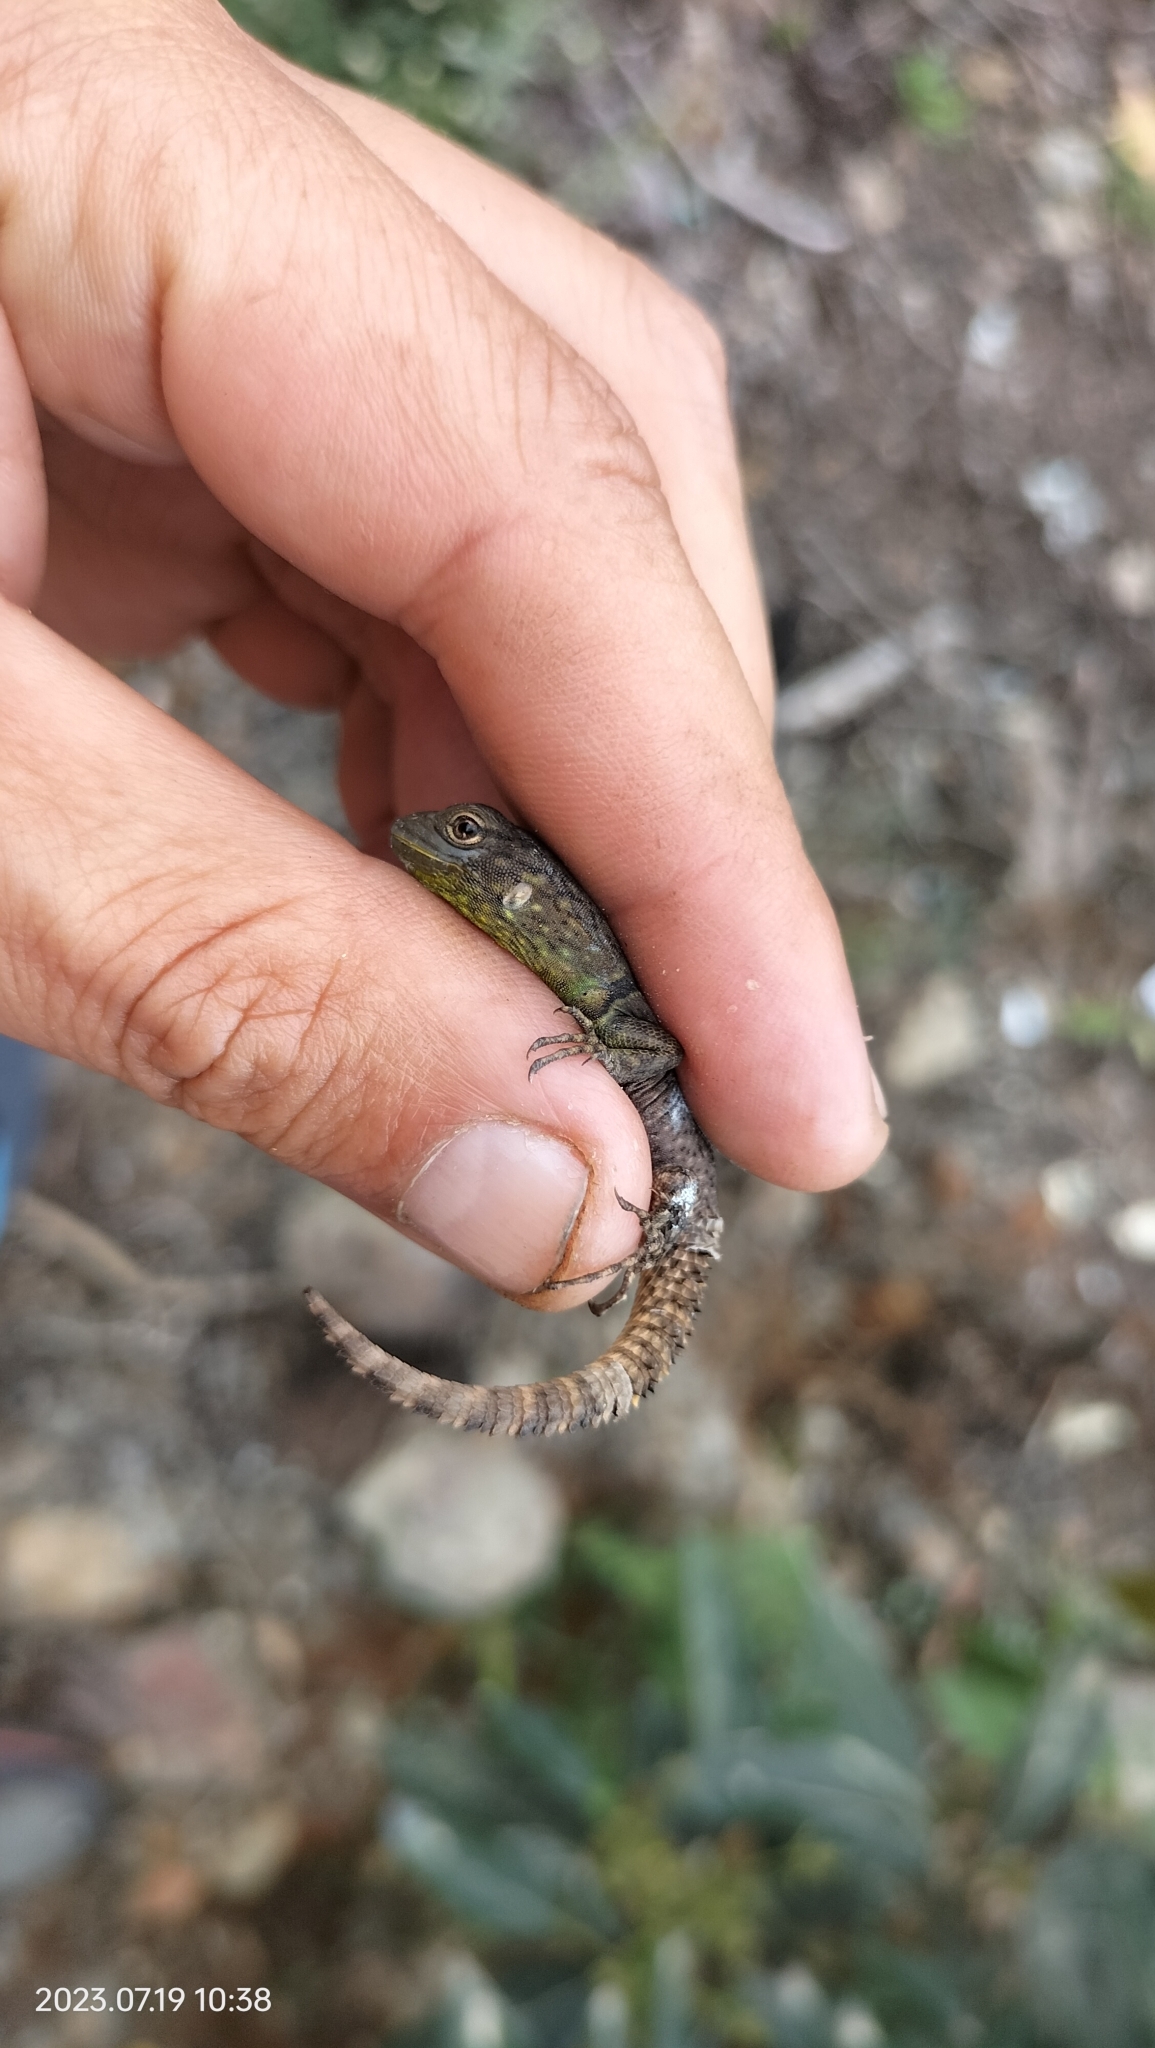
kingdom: Animalia
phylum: Chordata
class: Squamata
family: Tropiduridae
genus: Stenocercus
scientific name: Stenocercus crassicaudatus
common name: Spiny whorltail iguana
